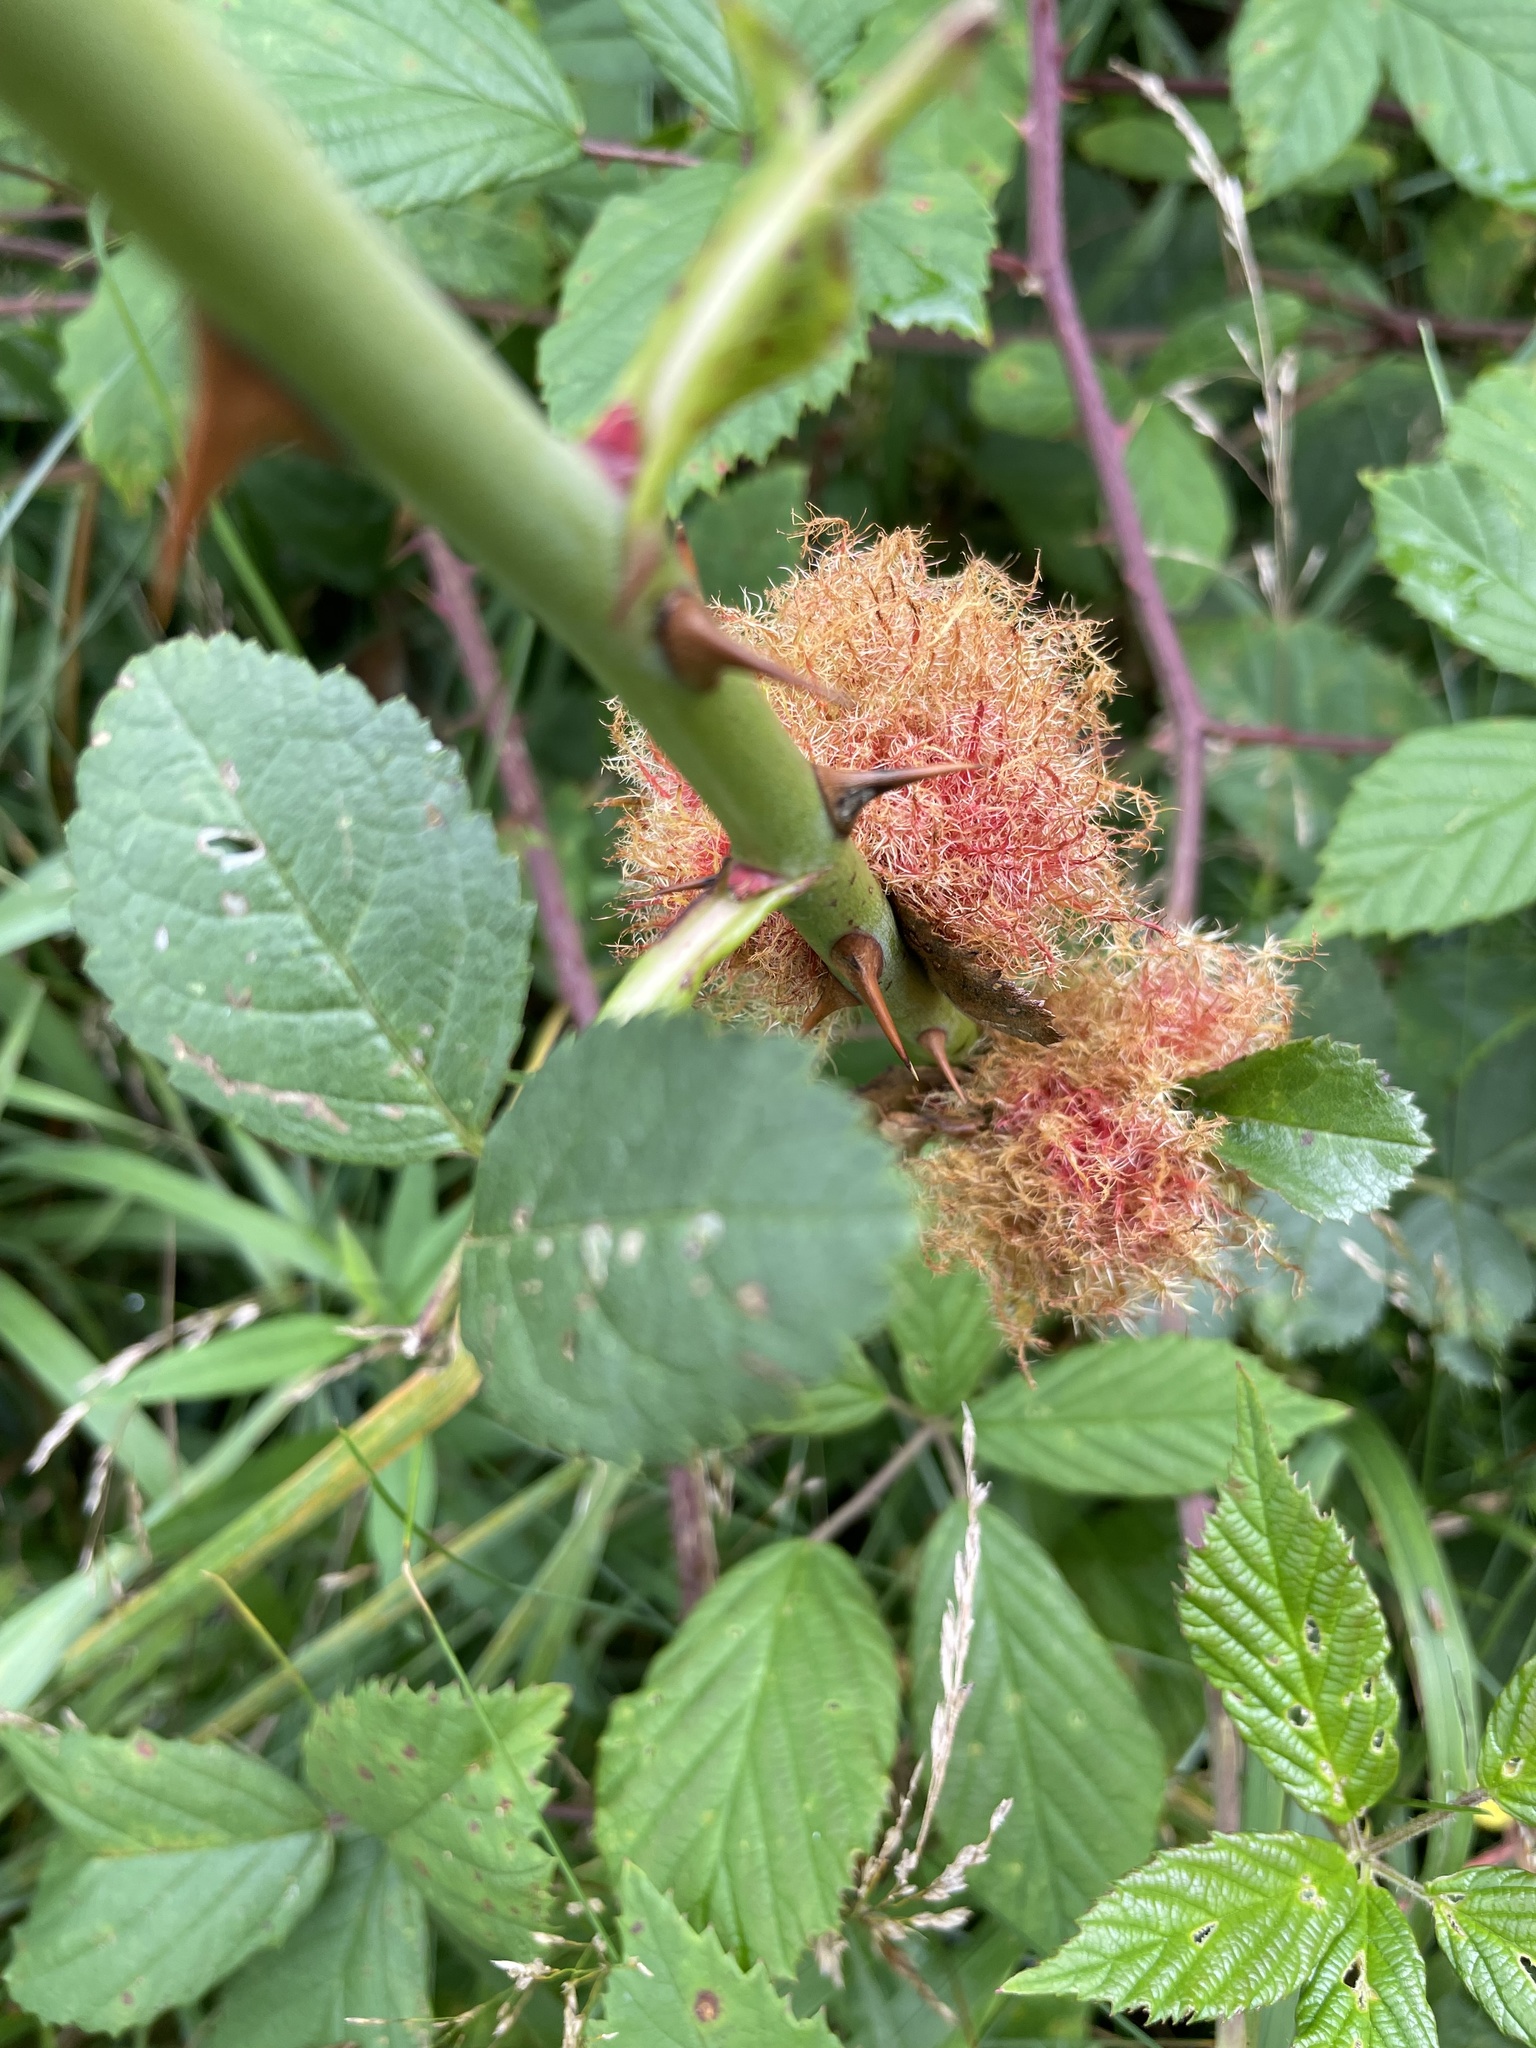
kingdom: Animalia
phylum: Arthropoda
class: Insecta
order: Hymenoptera
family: Cynipidae
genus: Diplolepis
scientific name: Diplolepis rosae
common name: Bedeguar gall
